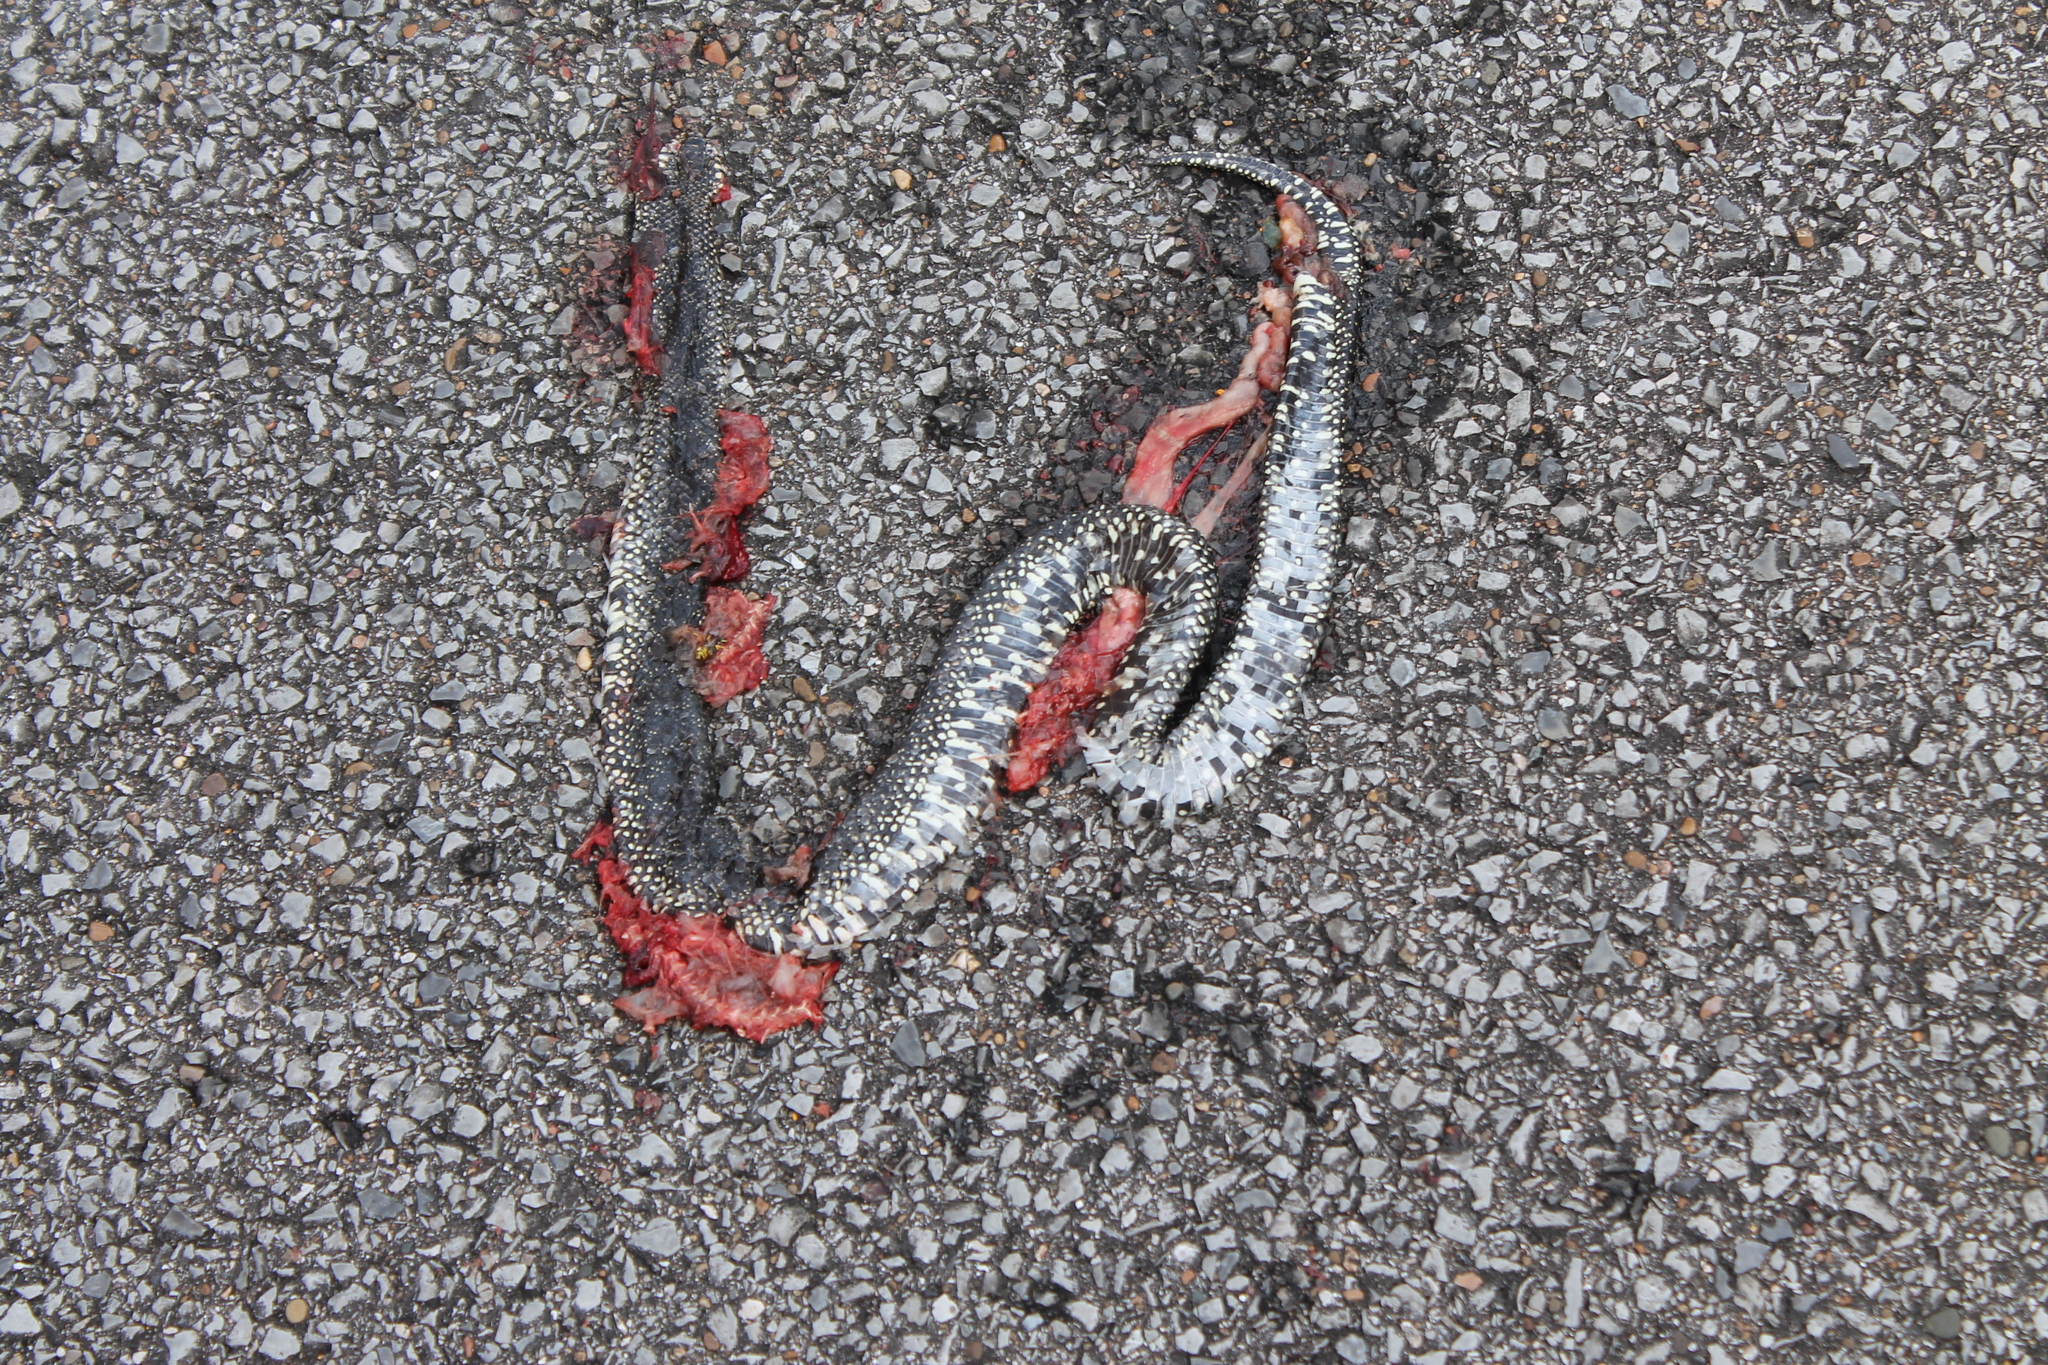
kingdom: Animalia
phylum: Chordata
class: Squamata
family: Colubridae
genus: Lampropeltis
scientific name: Lampropeltis nigra
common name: Black kingsnake
